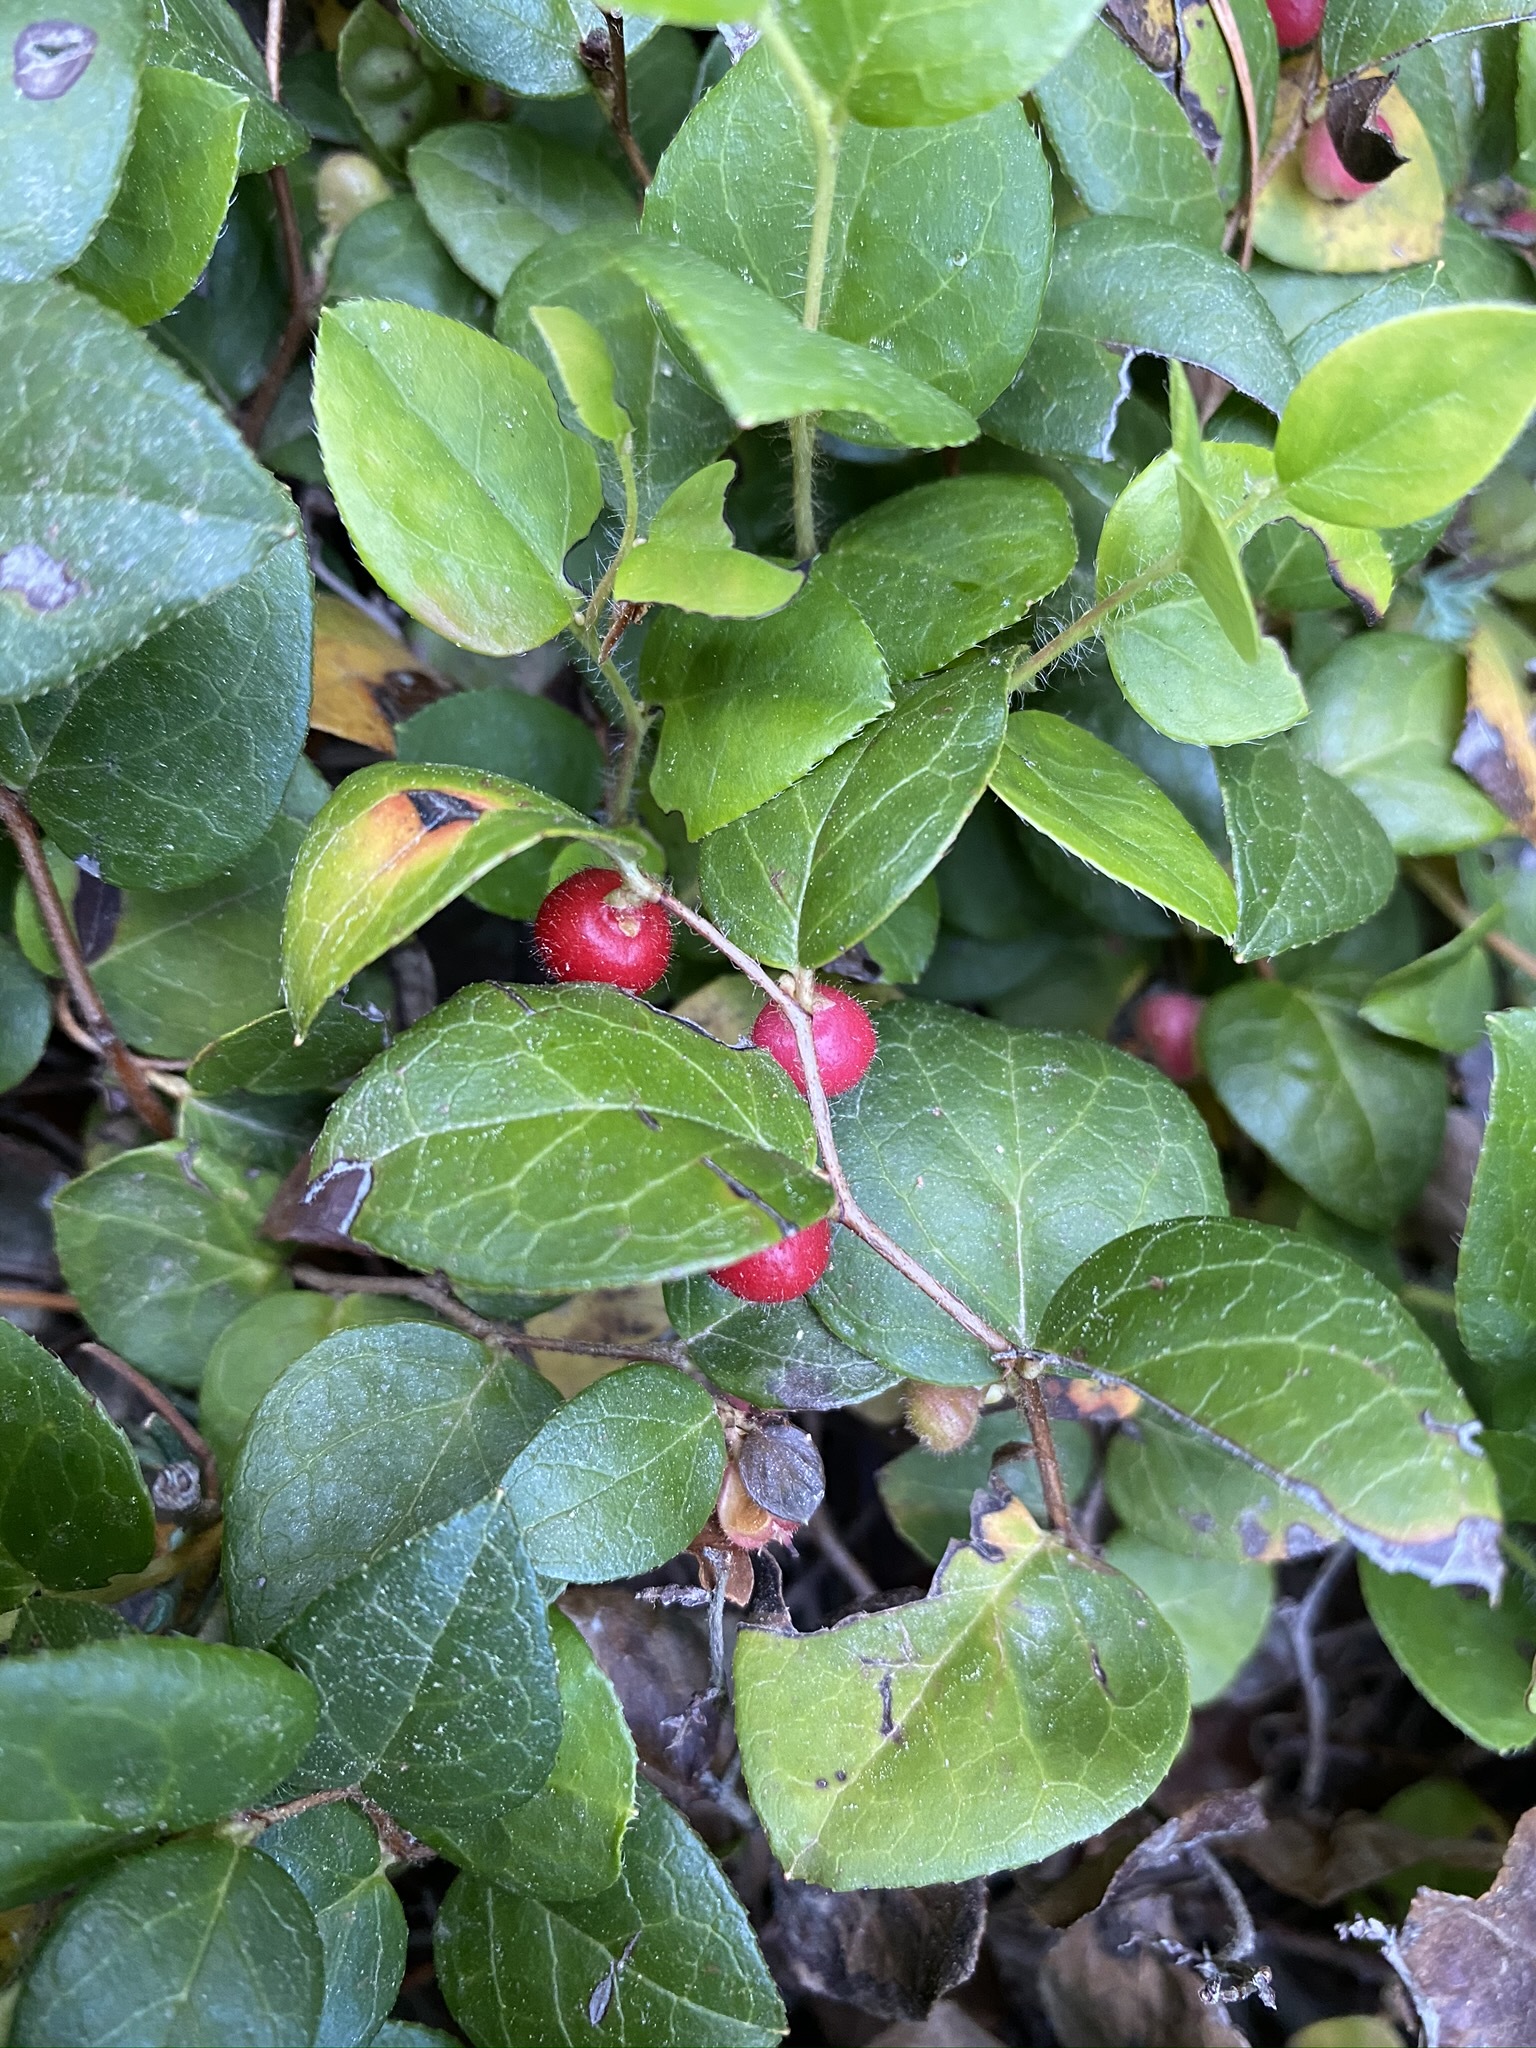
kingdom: Plantae
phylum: Tracheophyta
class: Magnoliopsida
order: Ericales
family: Ericaceae
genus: Gaultheria
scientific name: Gaultheria ovatifolia
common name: Oregon wintergreen
